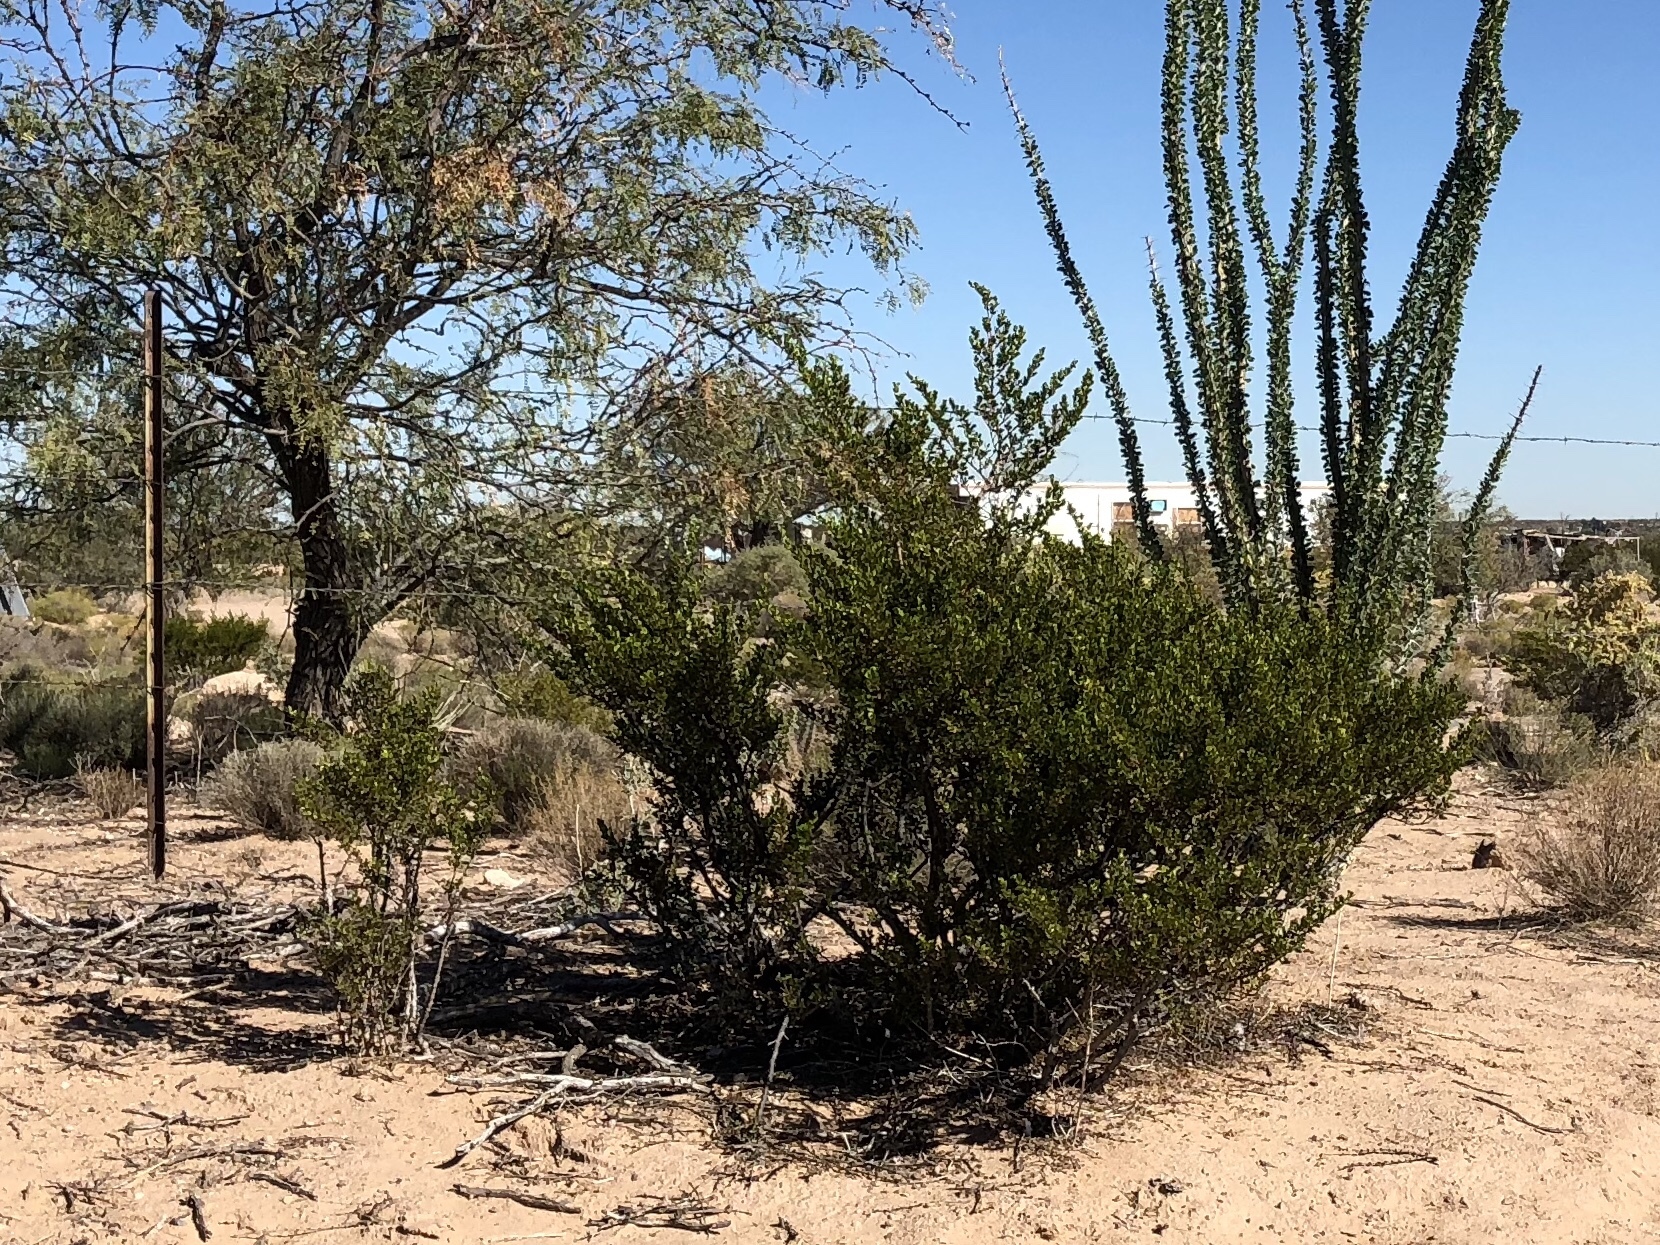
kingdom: Plantae
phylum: Tracheophyta
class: Magnoliopsida
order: Zygophyllales
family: Zygophyllaceae
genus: Larrea
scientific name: Larrea tridentata
